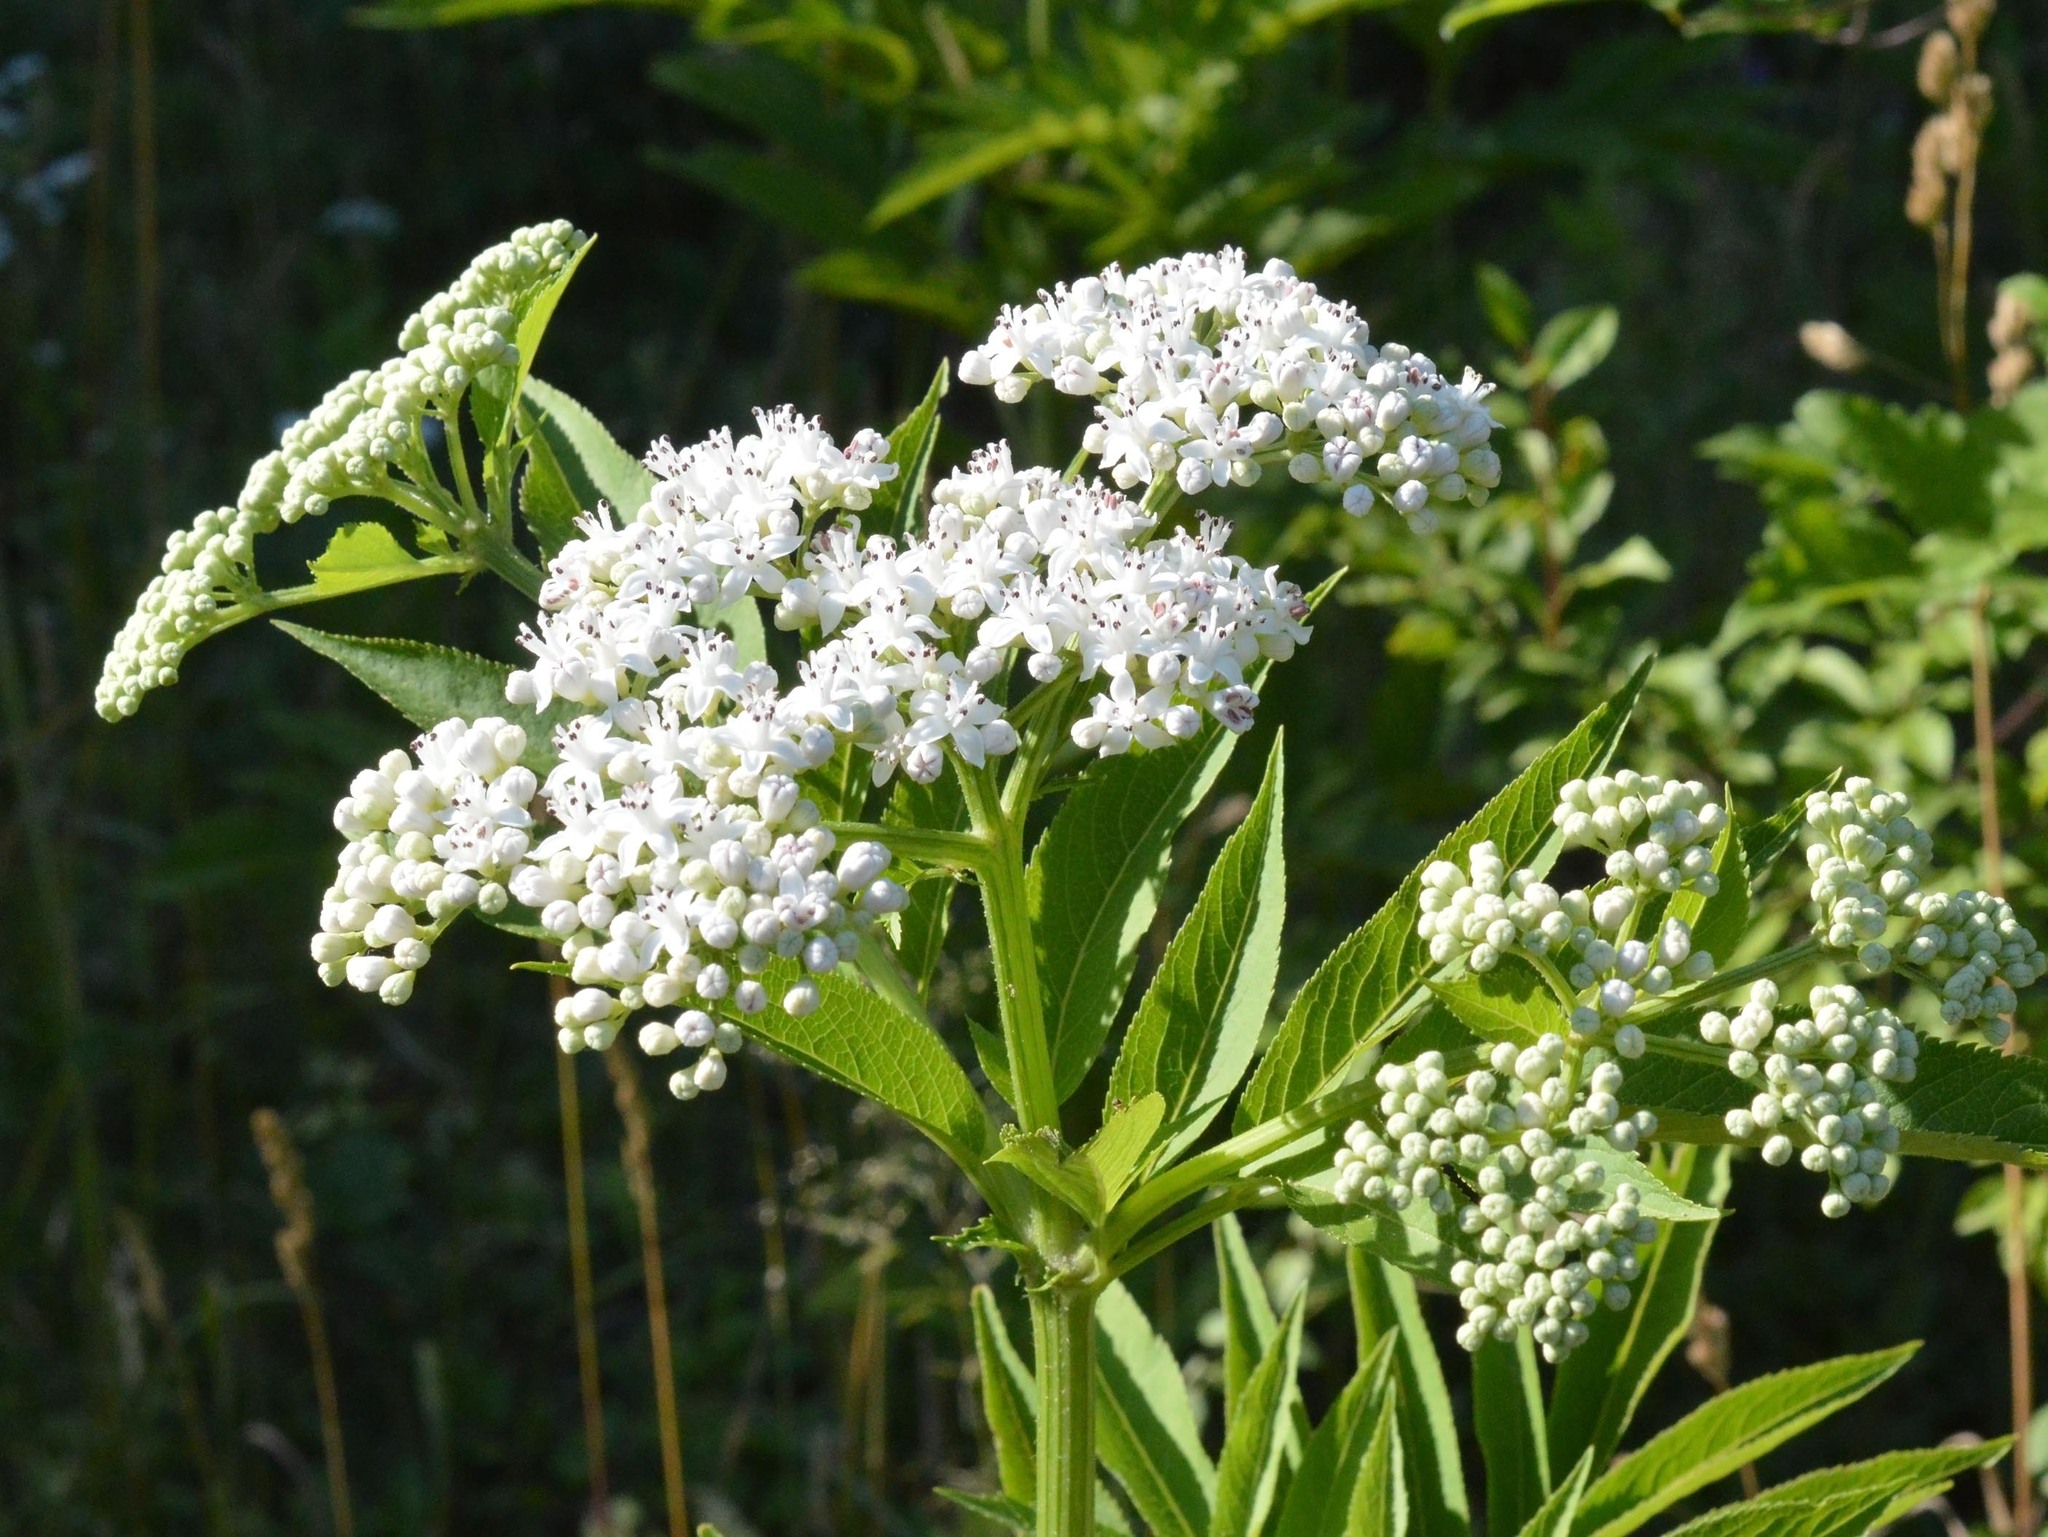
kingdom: Plantae
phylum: Tracheophyta
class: Magnoliopsida
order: Dipsacales
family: Viburnaceae
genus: Sambucus
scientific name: Sambucus ebulus
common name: Dwarf elder
